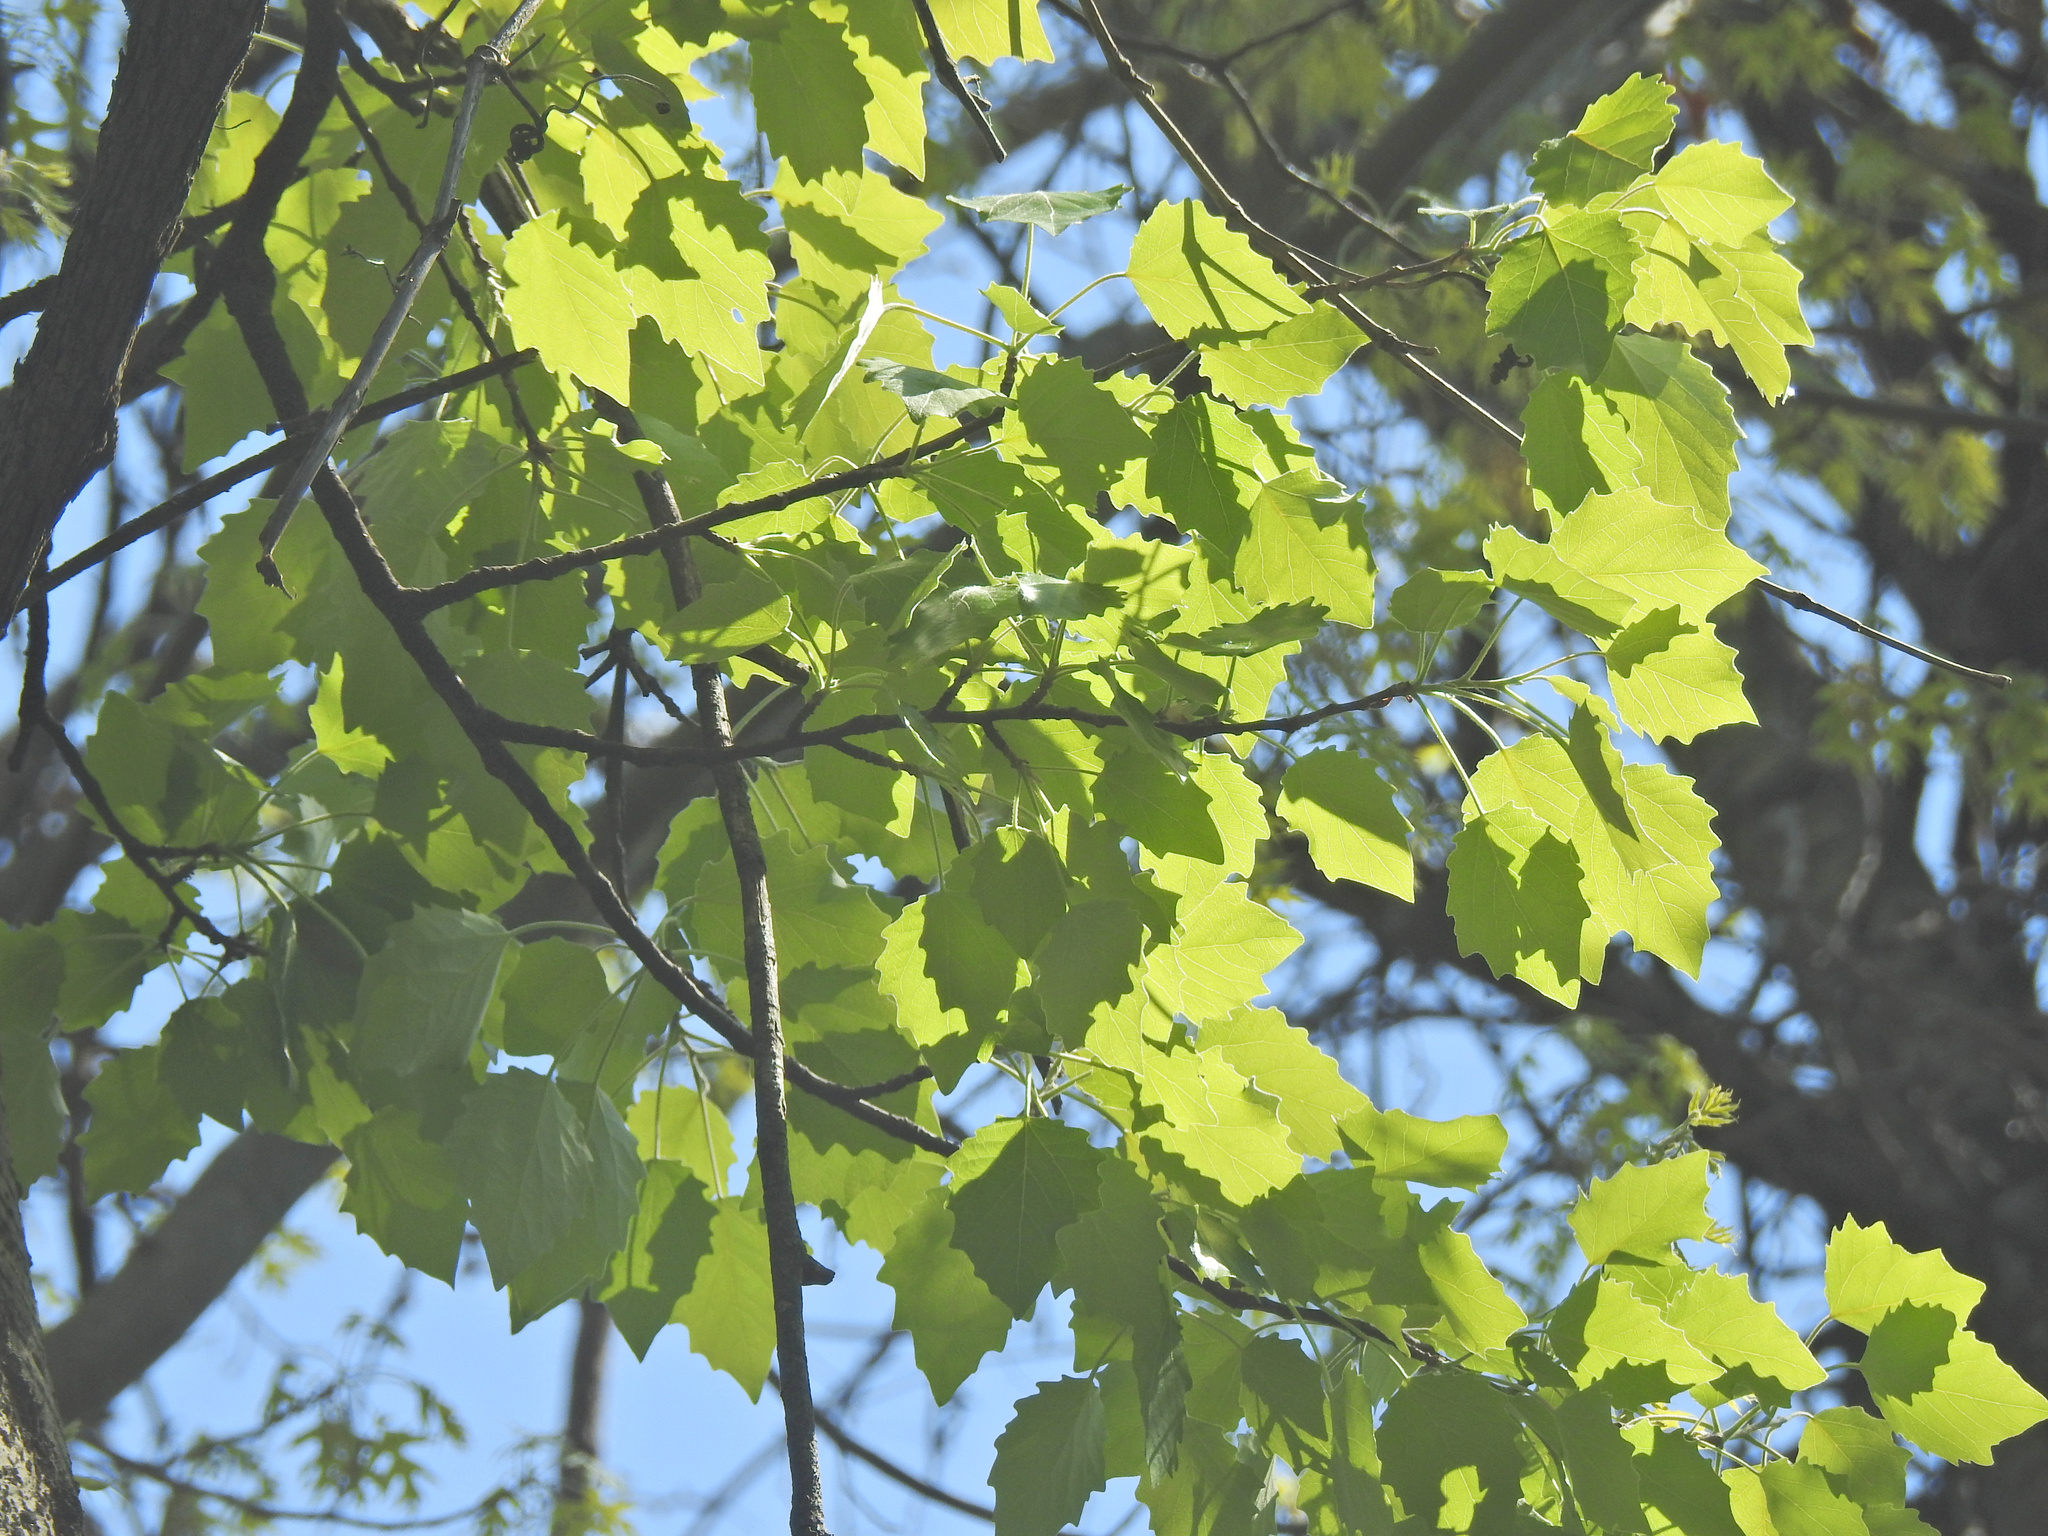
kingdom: Plantae
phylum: Tracheophyta
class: Magnoliopsida
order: Malpighiales
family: Salicaceae
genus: Populus
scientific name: Populus grandidentata
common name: Bigtooth aspen
